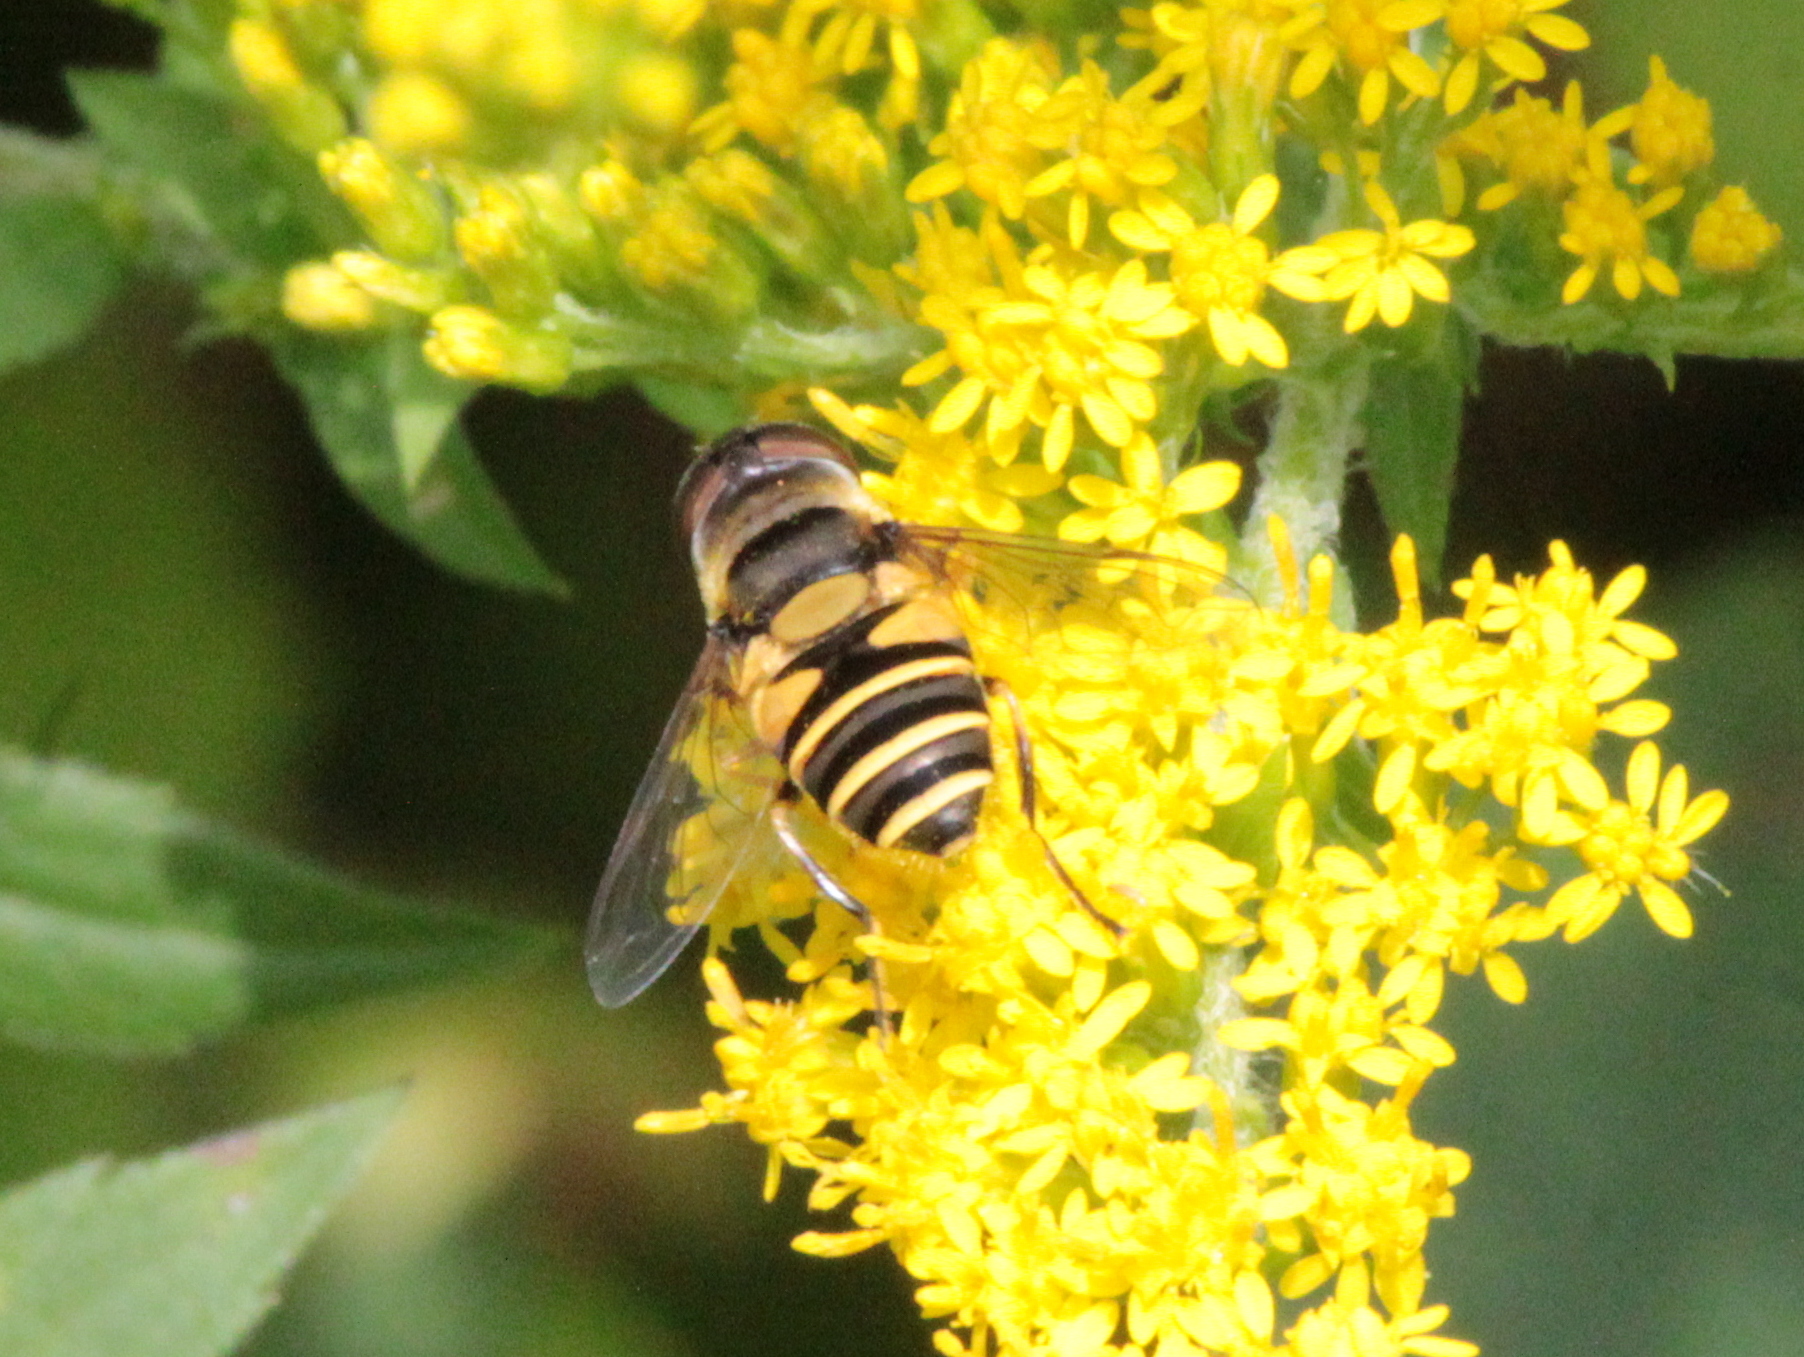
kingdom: Animalia
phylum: Arthropoda
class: Insecta
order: Diptera
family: Syrphidae
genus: Eristalis
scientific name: Eristalis transversa
